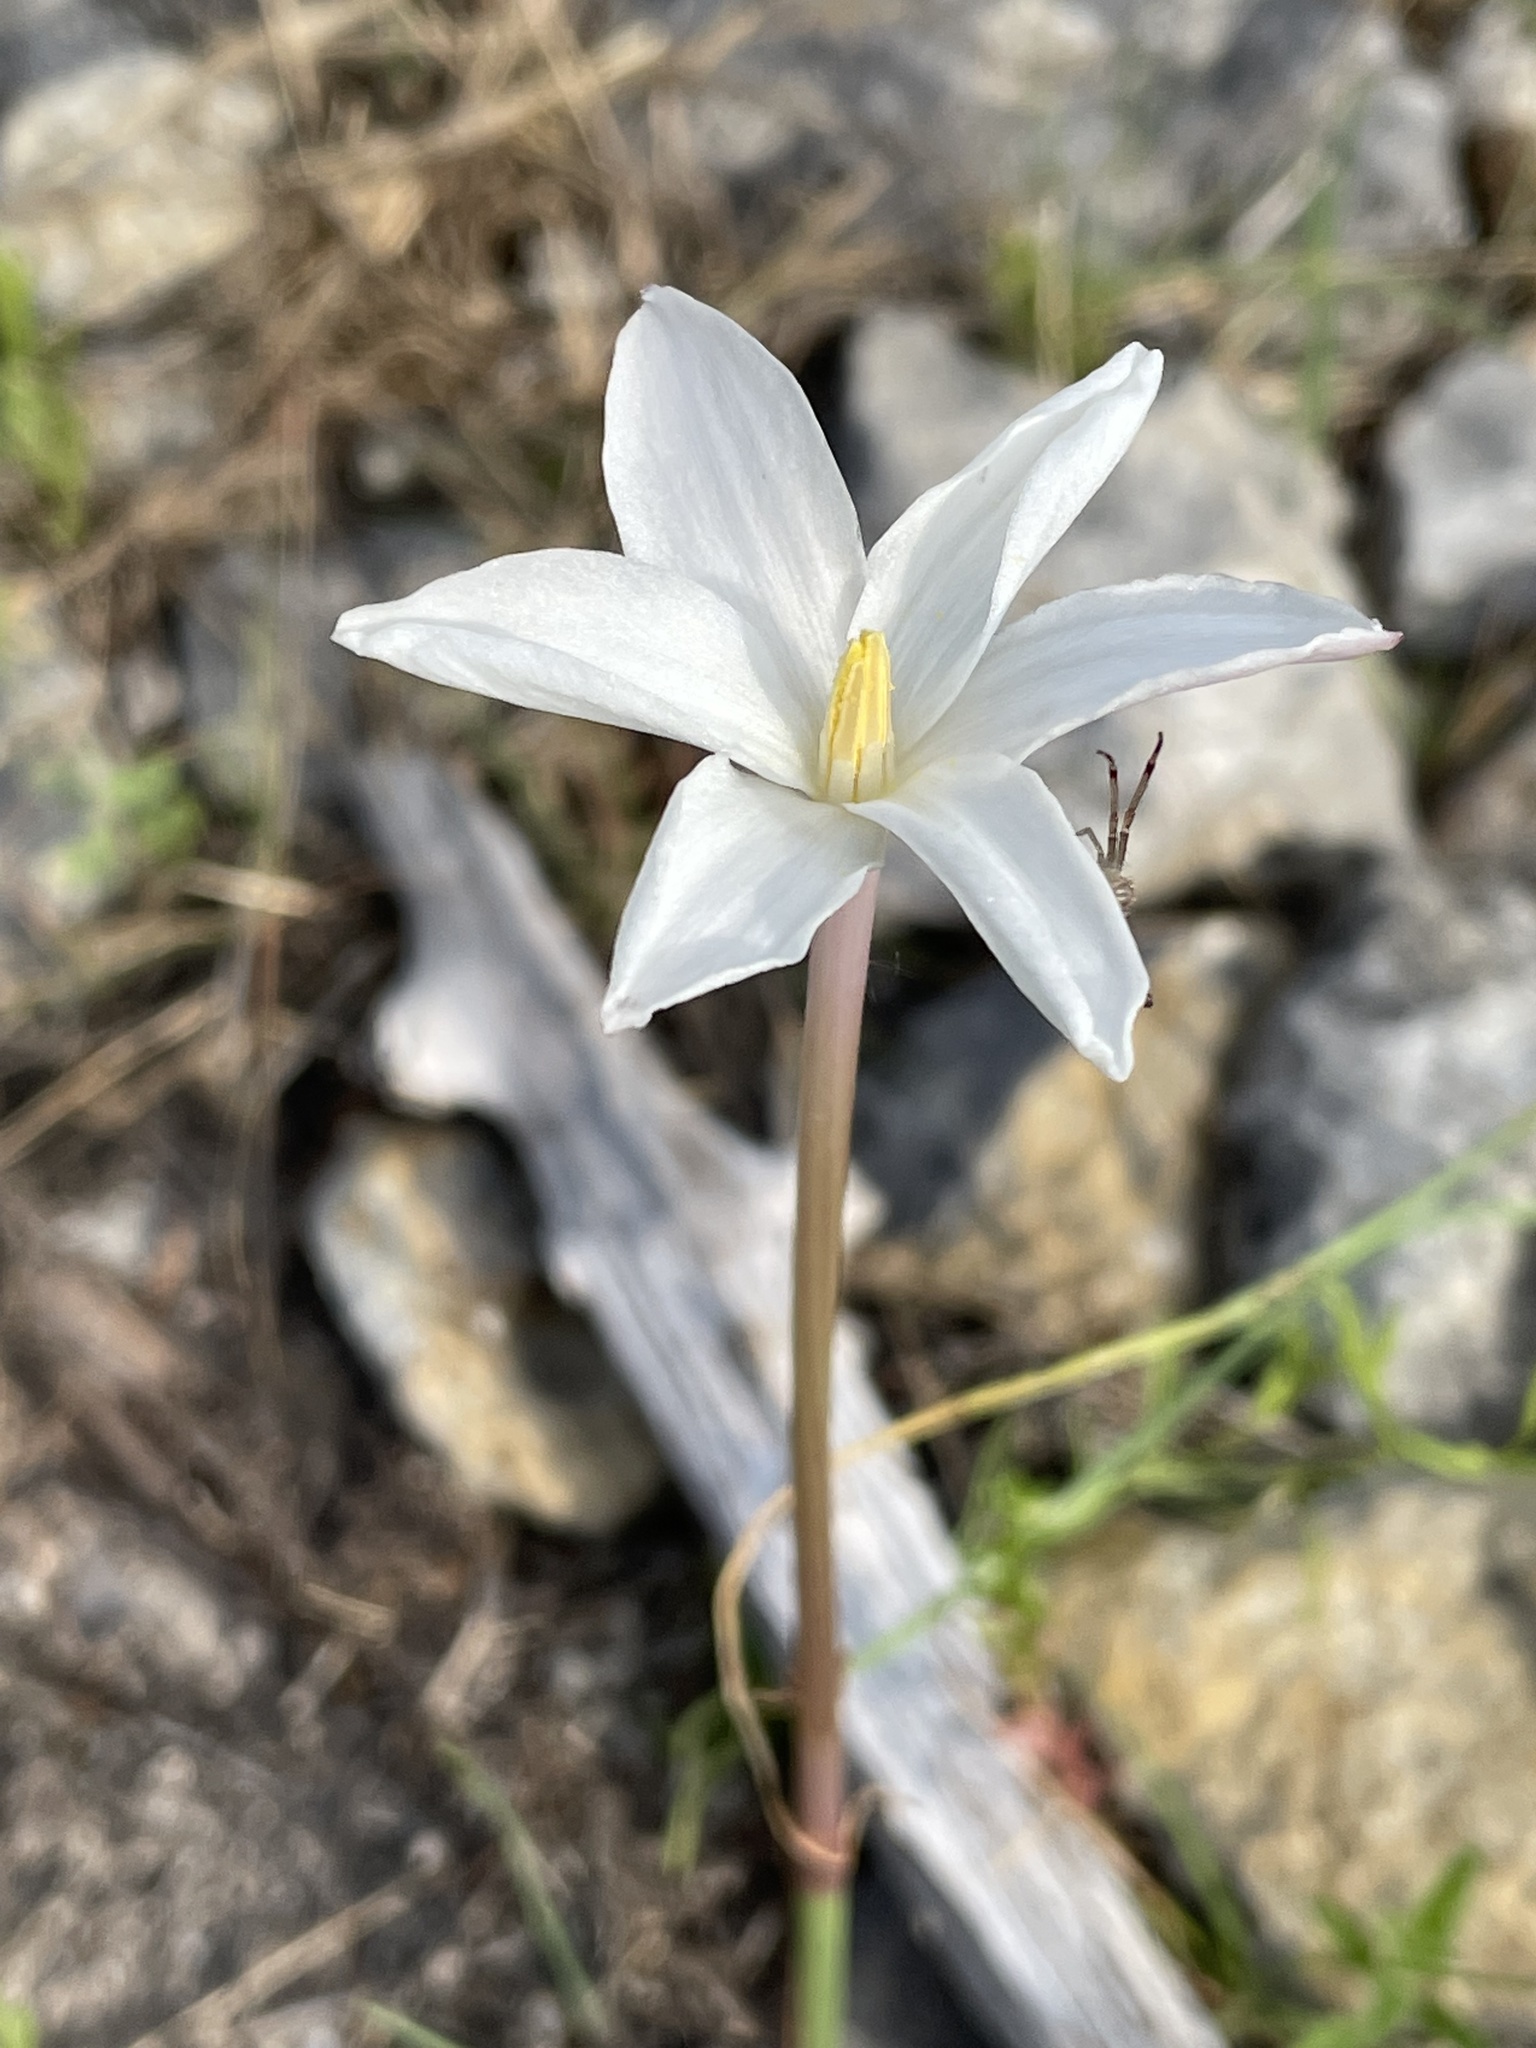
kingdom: Plantae
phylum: Tracheophyta
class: Liliopsida
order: Asparagales
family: Amaryllidaceae
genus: Zephyranthes
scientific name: Zephyranthes chlorosolen
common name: Evening rain-lily
